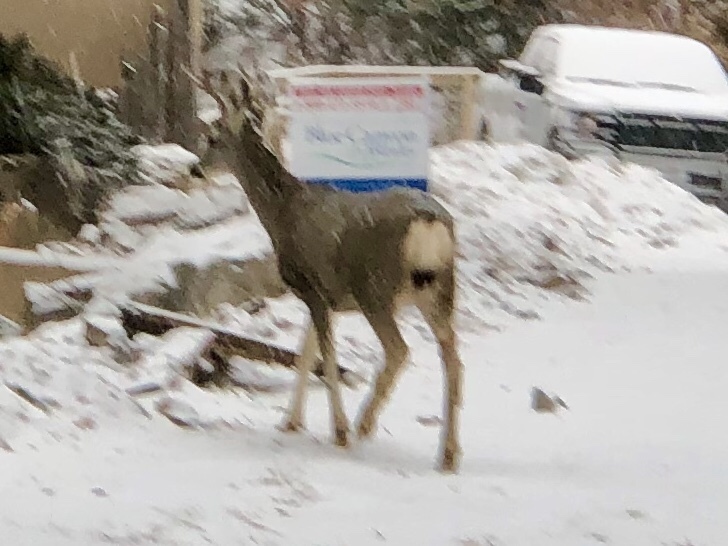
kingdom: Animalia
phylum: Chordata
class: Mammalia
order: Artiodactyla
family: Cervidae
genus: Odocoileus
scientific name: Odocoileus hemionus
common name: Mule deer
